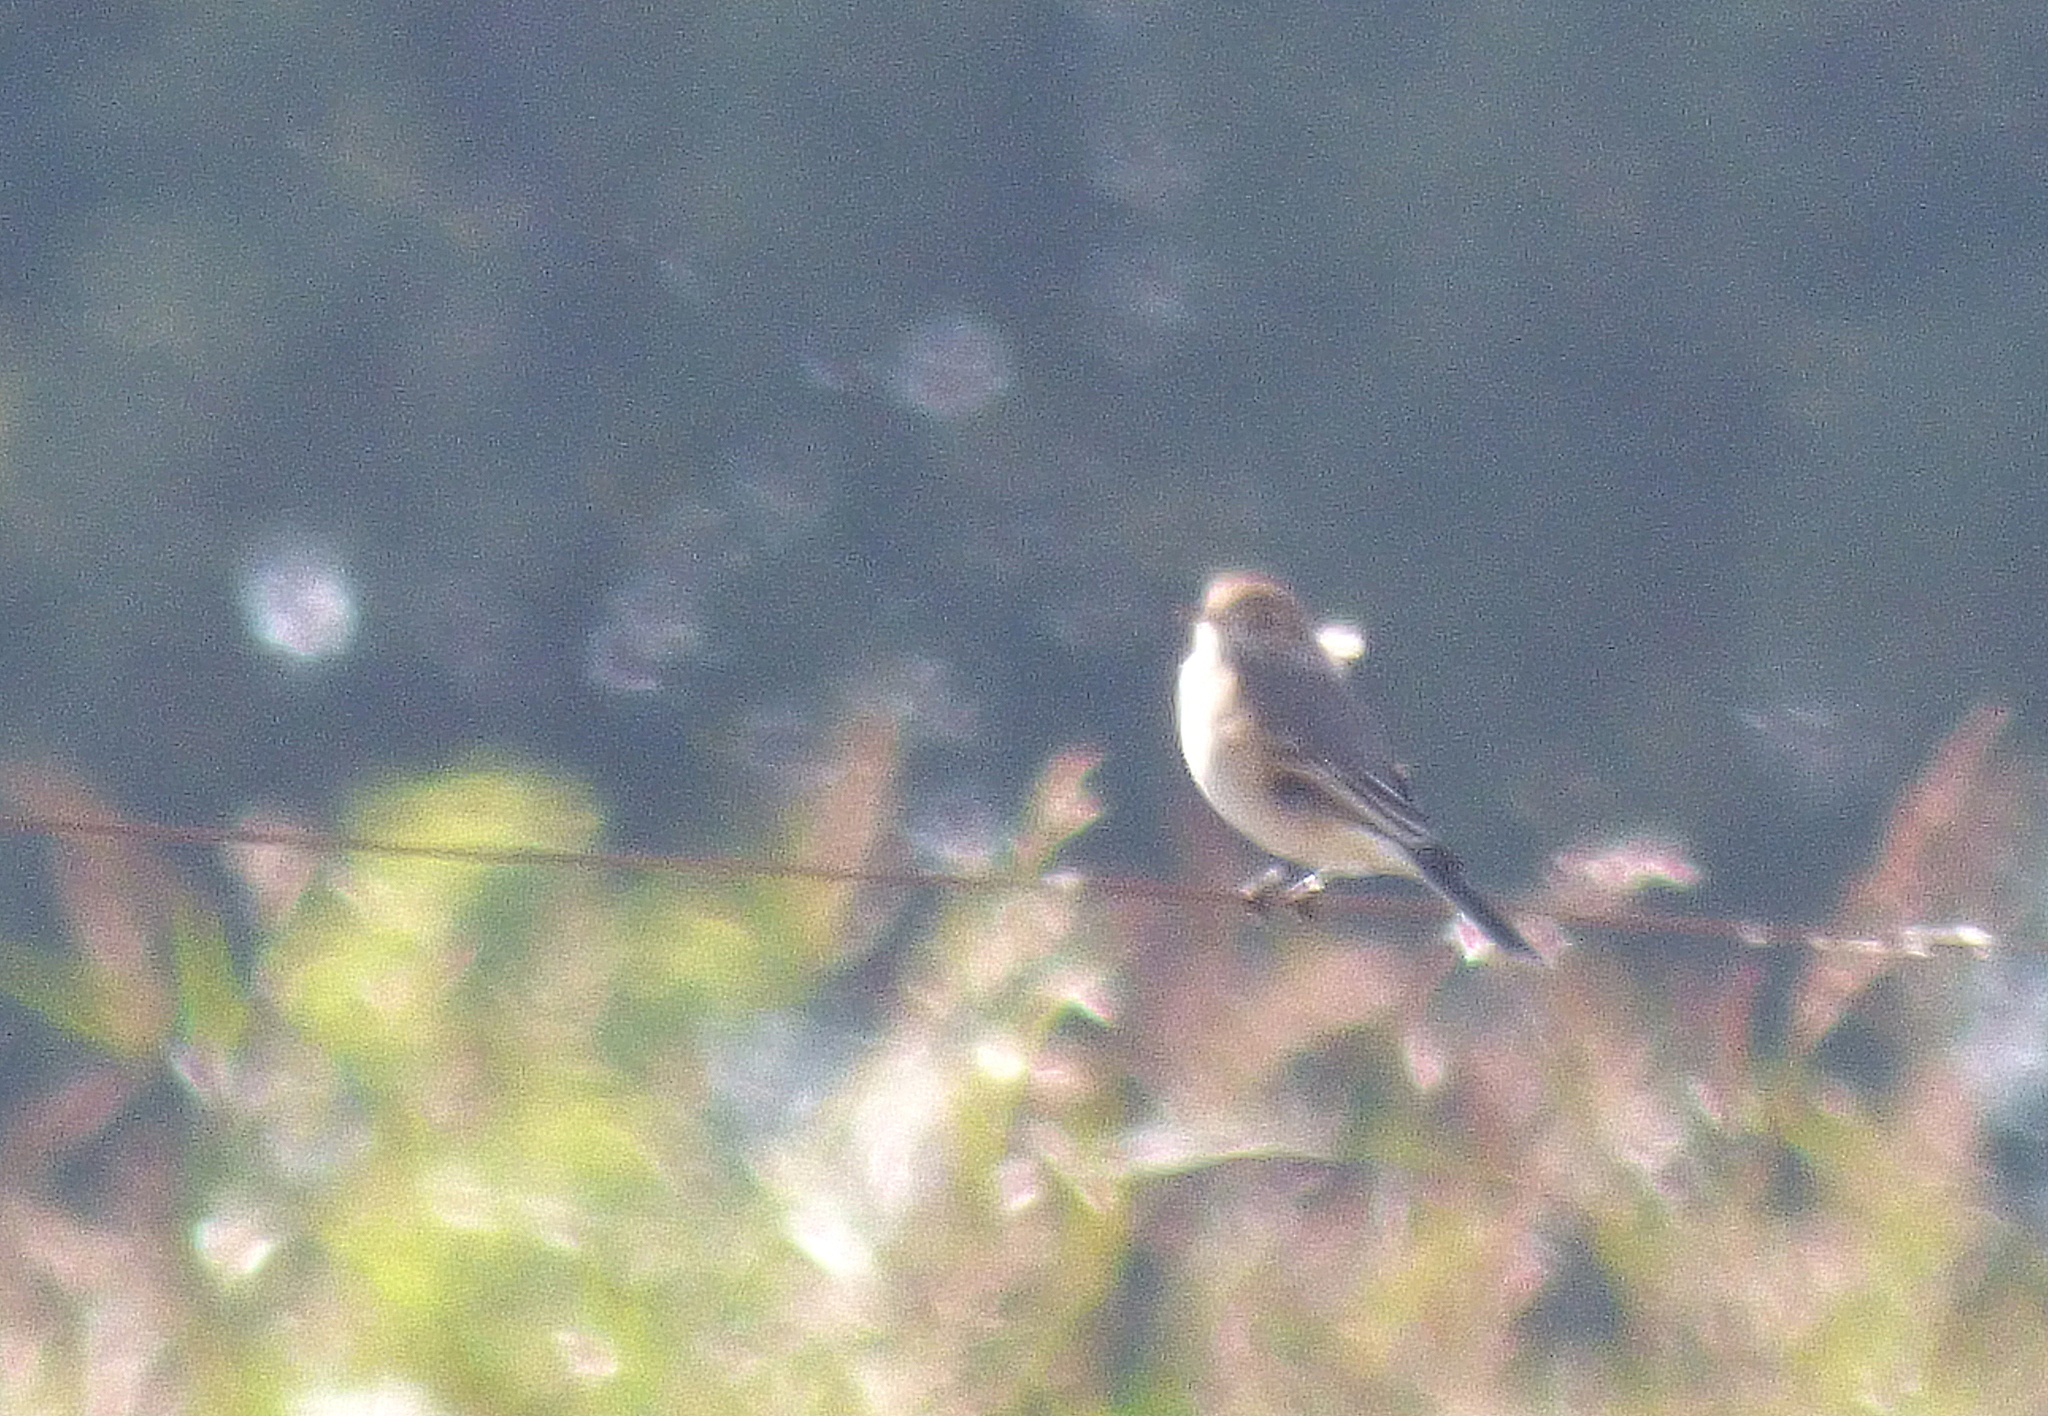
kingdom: Animalia
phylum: Chordata
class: Aves
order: Passeriformes
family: Tyrannidae
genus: Agriornis
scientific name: Agriornis murinus
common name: Lesser shrike-tyrant
